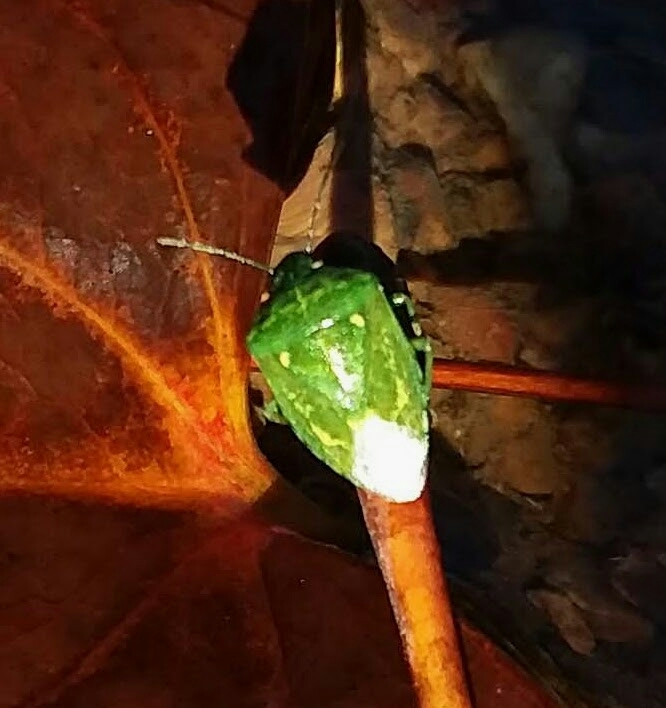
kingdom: Animalia
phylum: Arthropoda
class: Insecta
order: Hemiptera
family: Pentatomidae
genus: Banasa
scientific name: Banasa euchlora
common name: Cedar berry bug
